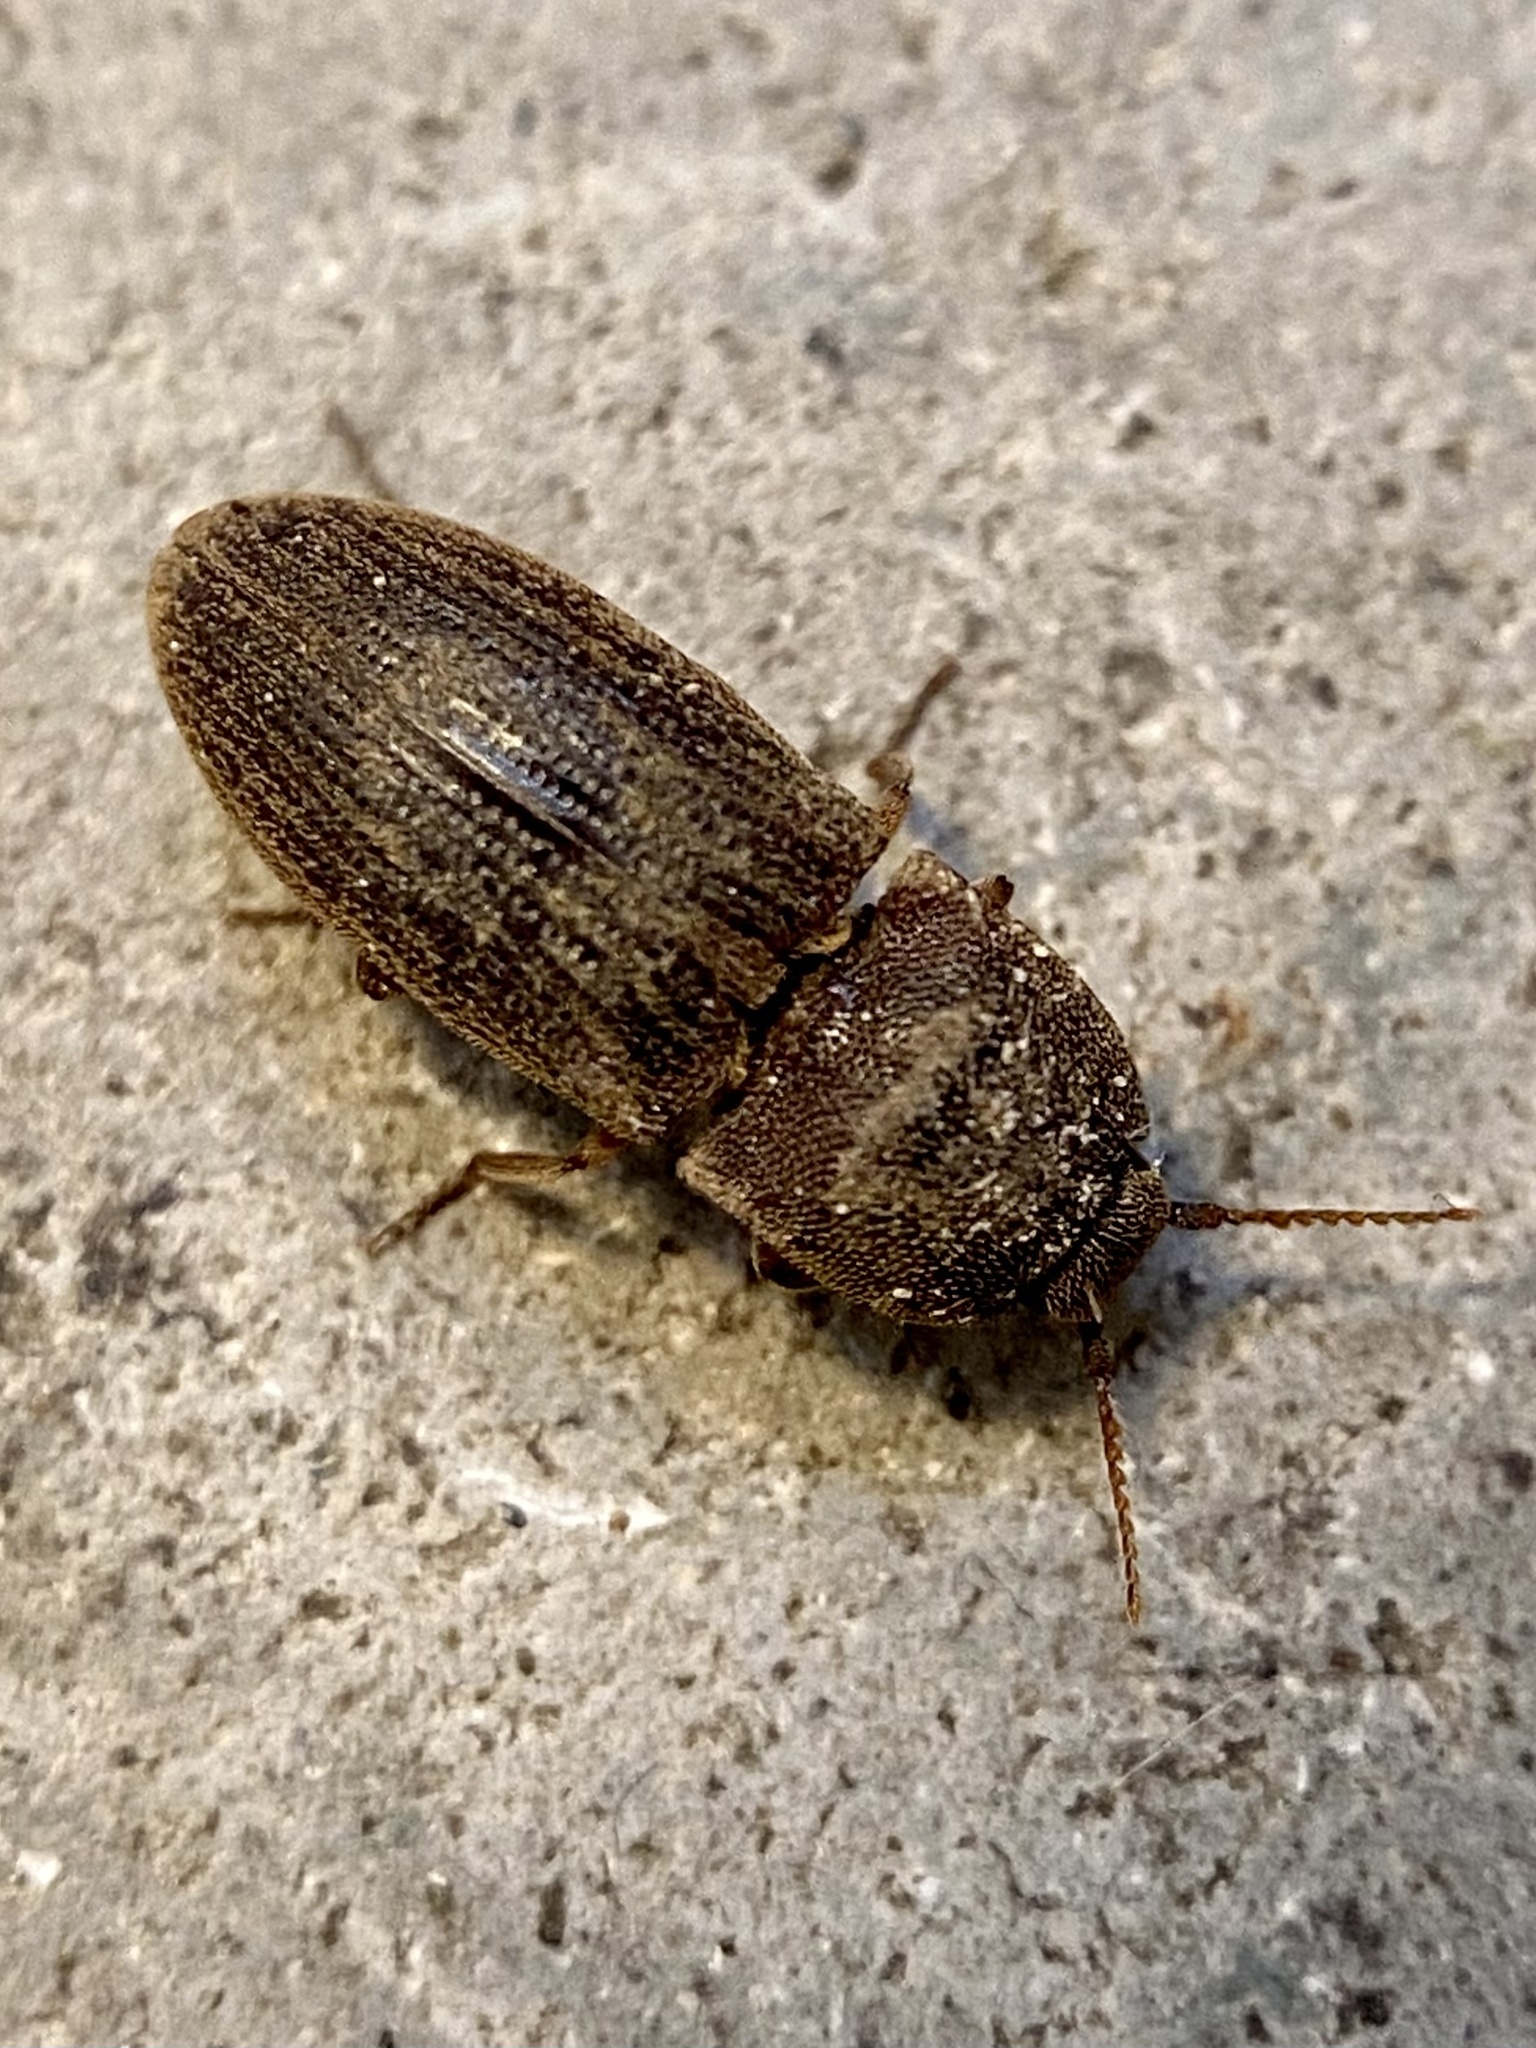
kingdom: Animalia
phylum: Arthropoda
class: Insecta
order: Coleoptera
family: Elateridae
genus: Agrypnus
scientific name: Agrypnus rectangularis
